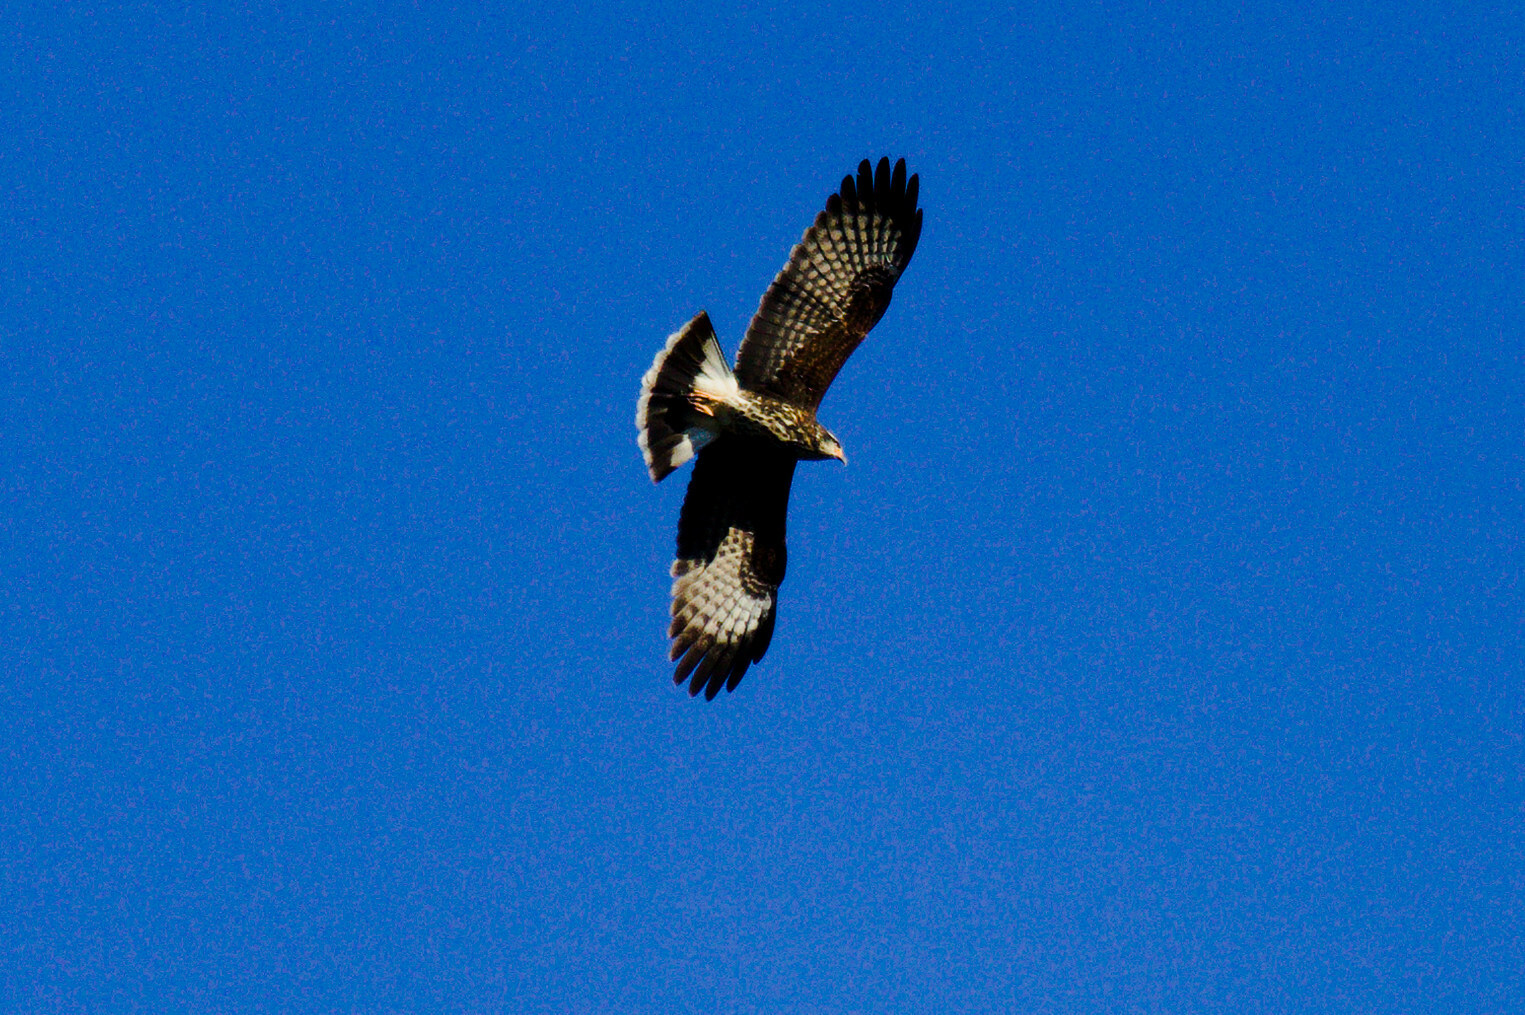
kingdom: Animalia
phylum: Chordata
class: Aves
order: Accipitriformes
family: Accipitridae
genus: Rostrhamus
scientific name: Rostrhamus sociabilis
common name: Snail kite
